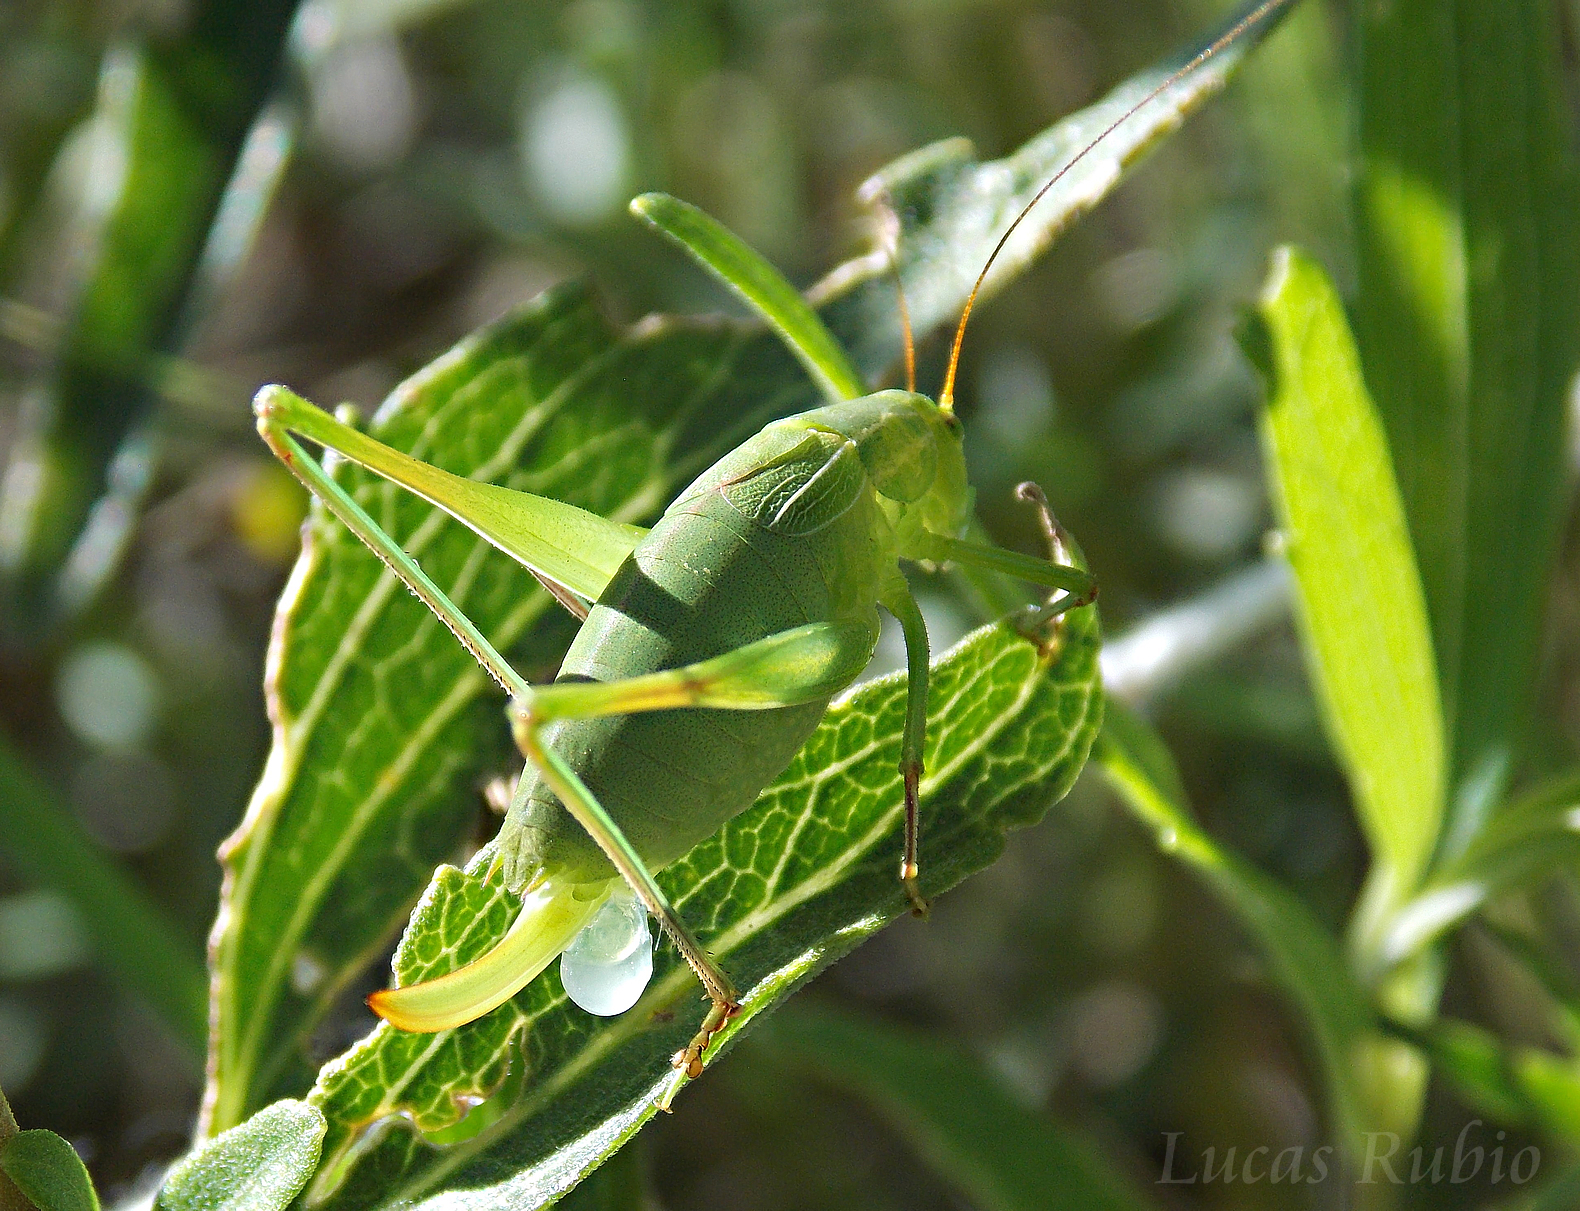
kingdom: Animalia
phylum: Arthropoda
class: Insecta
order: Orthoptera
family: Tettigoniidae
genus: Anisophya
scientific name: Anisophya brasiliensis
